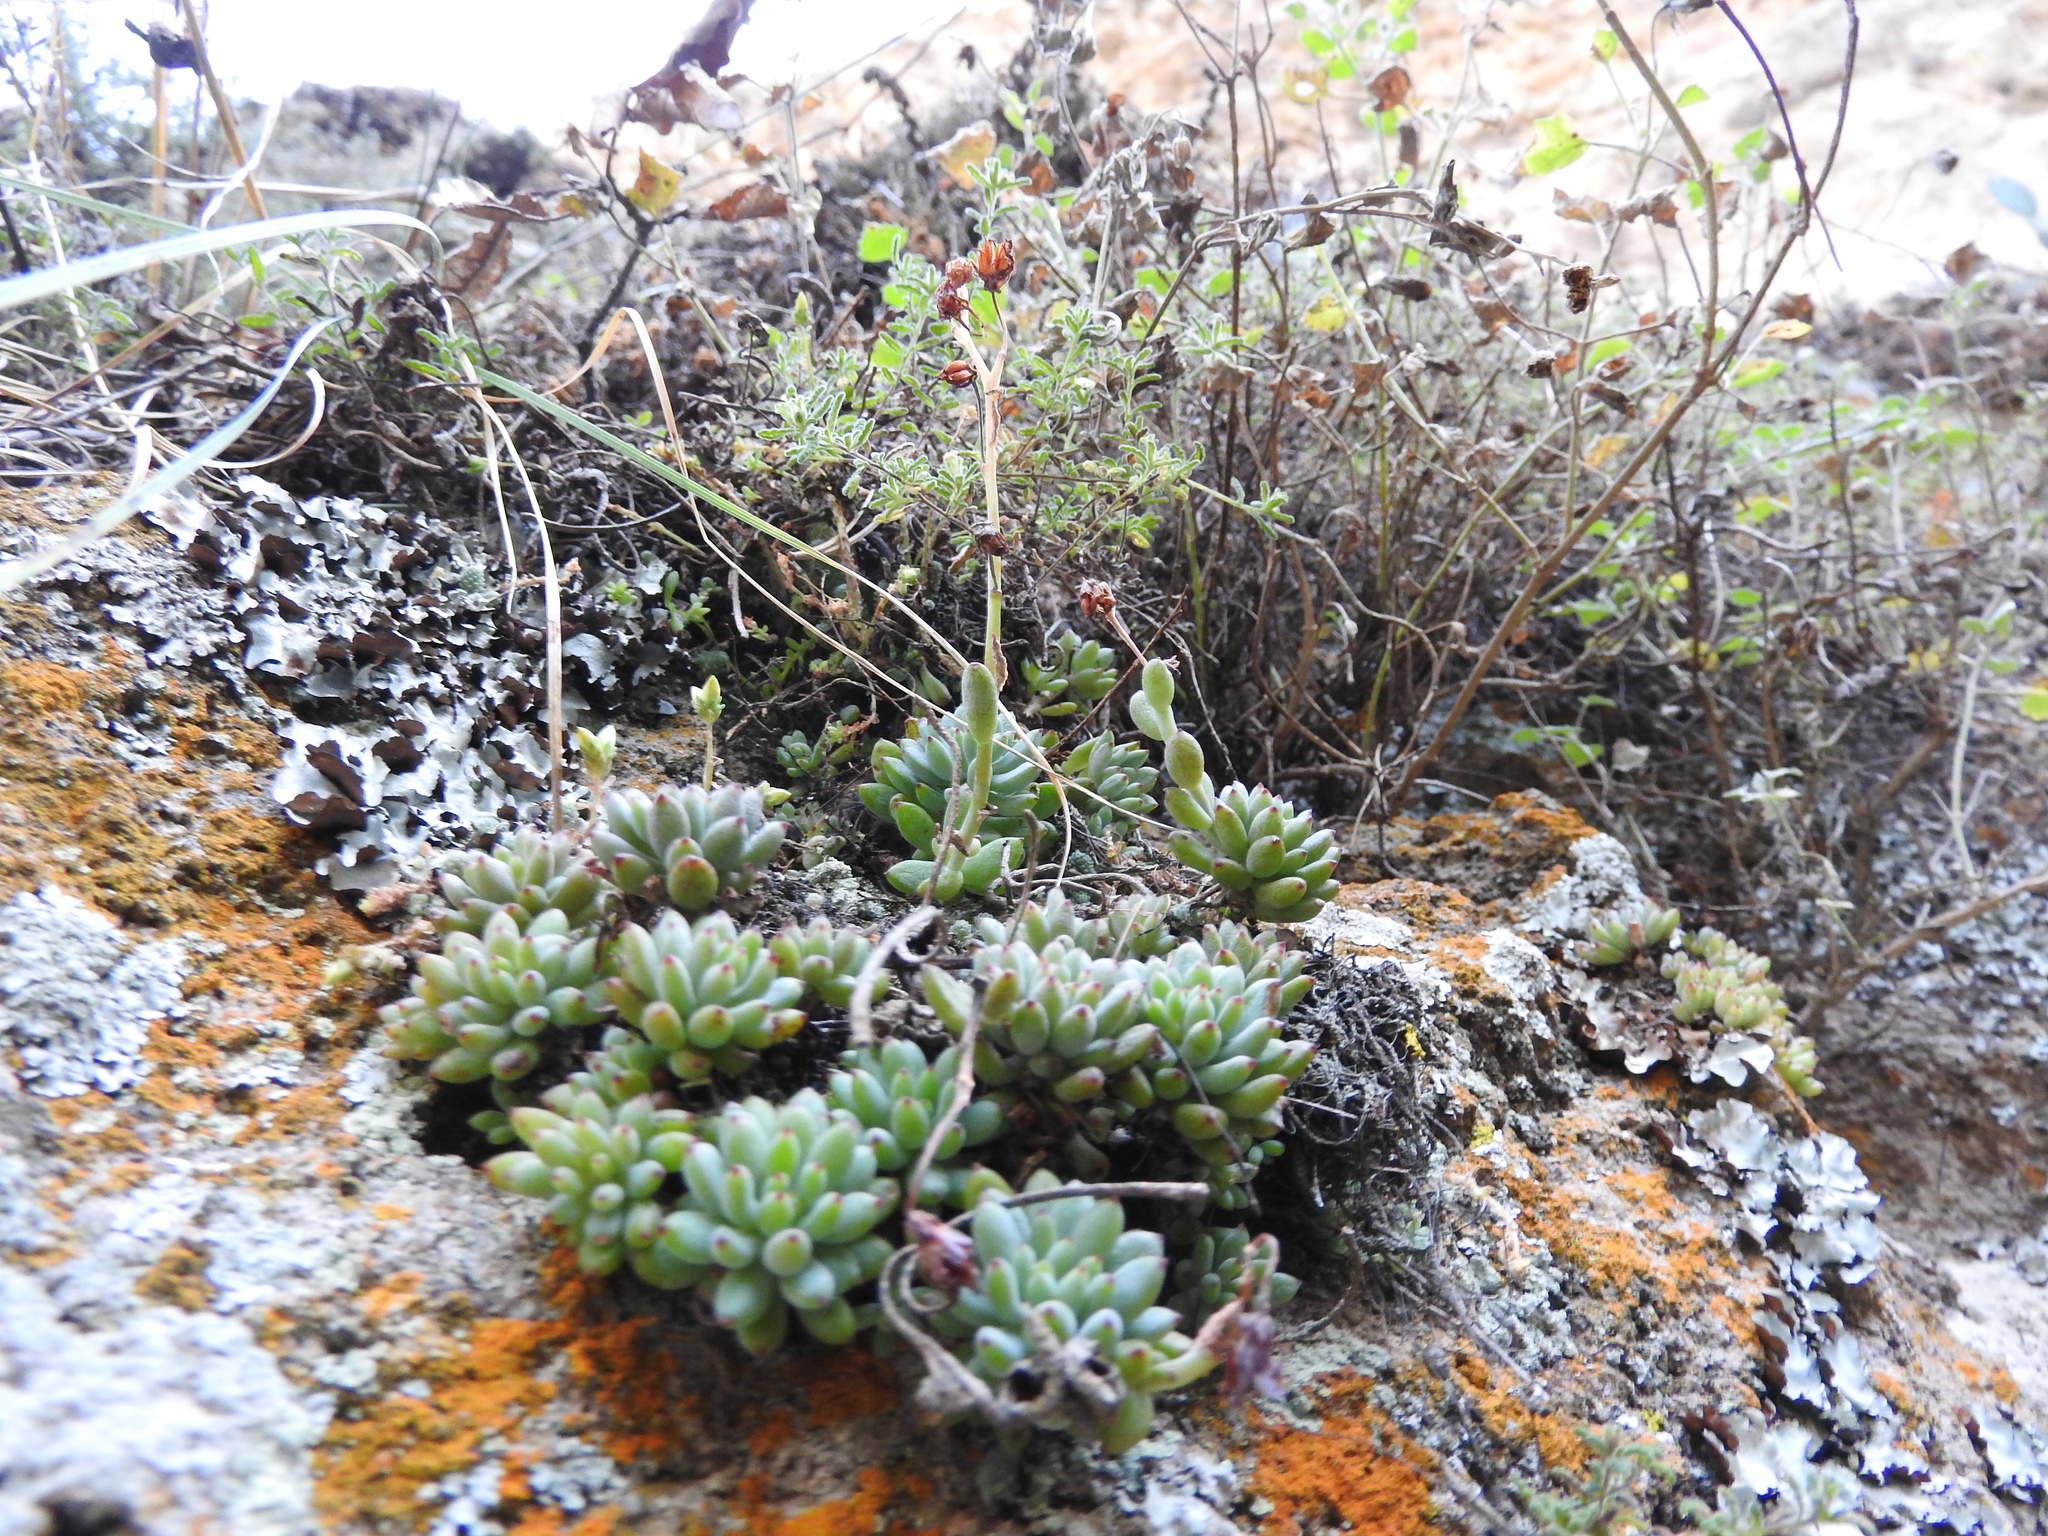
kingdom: Plantae
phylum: Tracheophyta
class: Magnoliopsida
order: Saxifragales
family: Crassulaceae
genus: Graptopetalum
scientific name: Graptopetalum pachyphyllum
